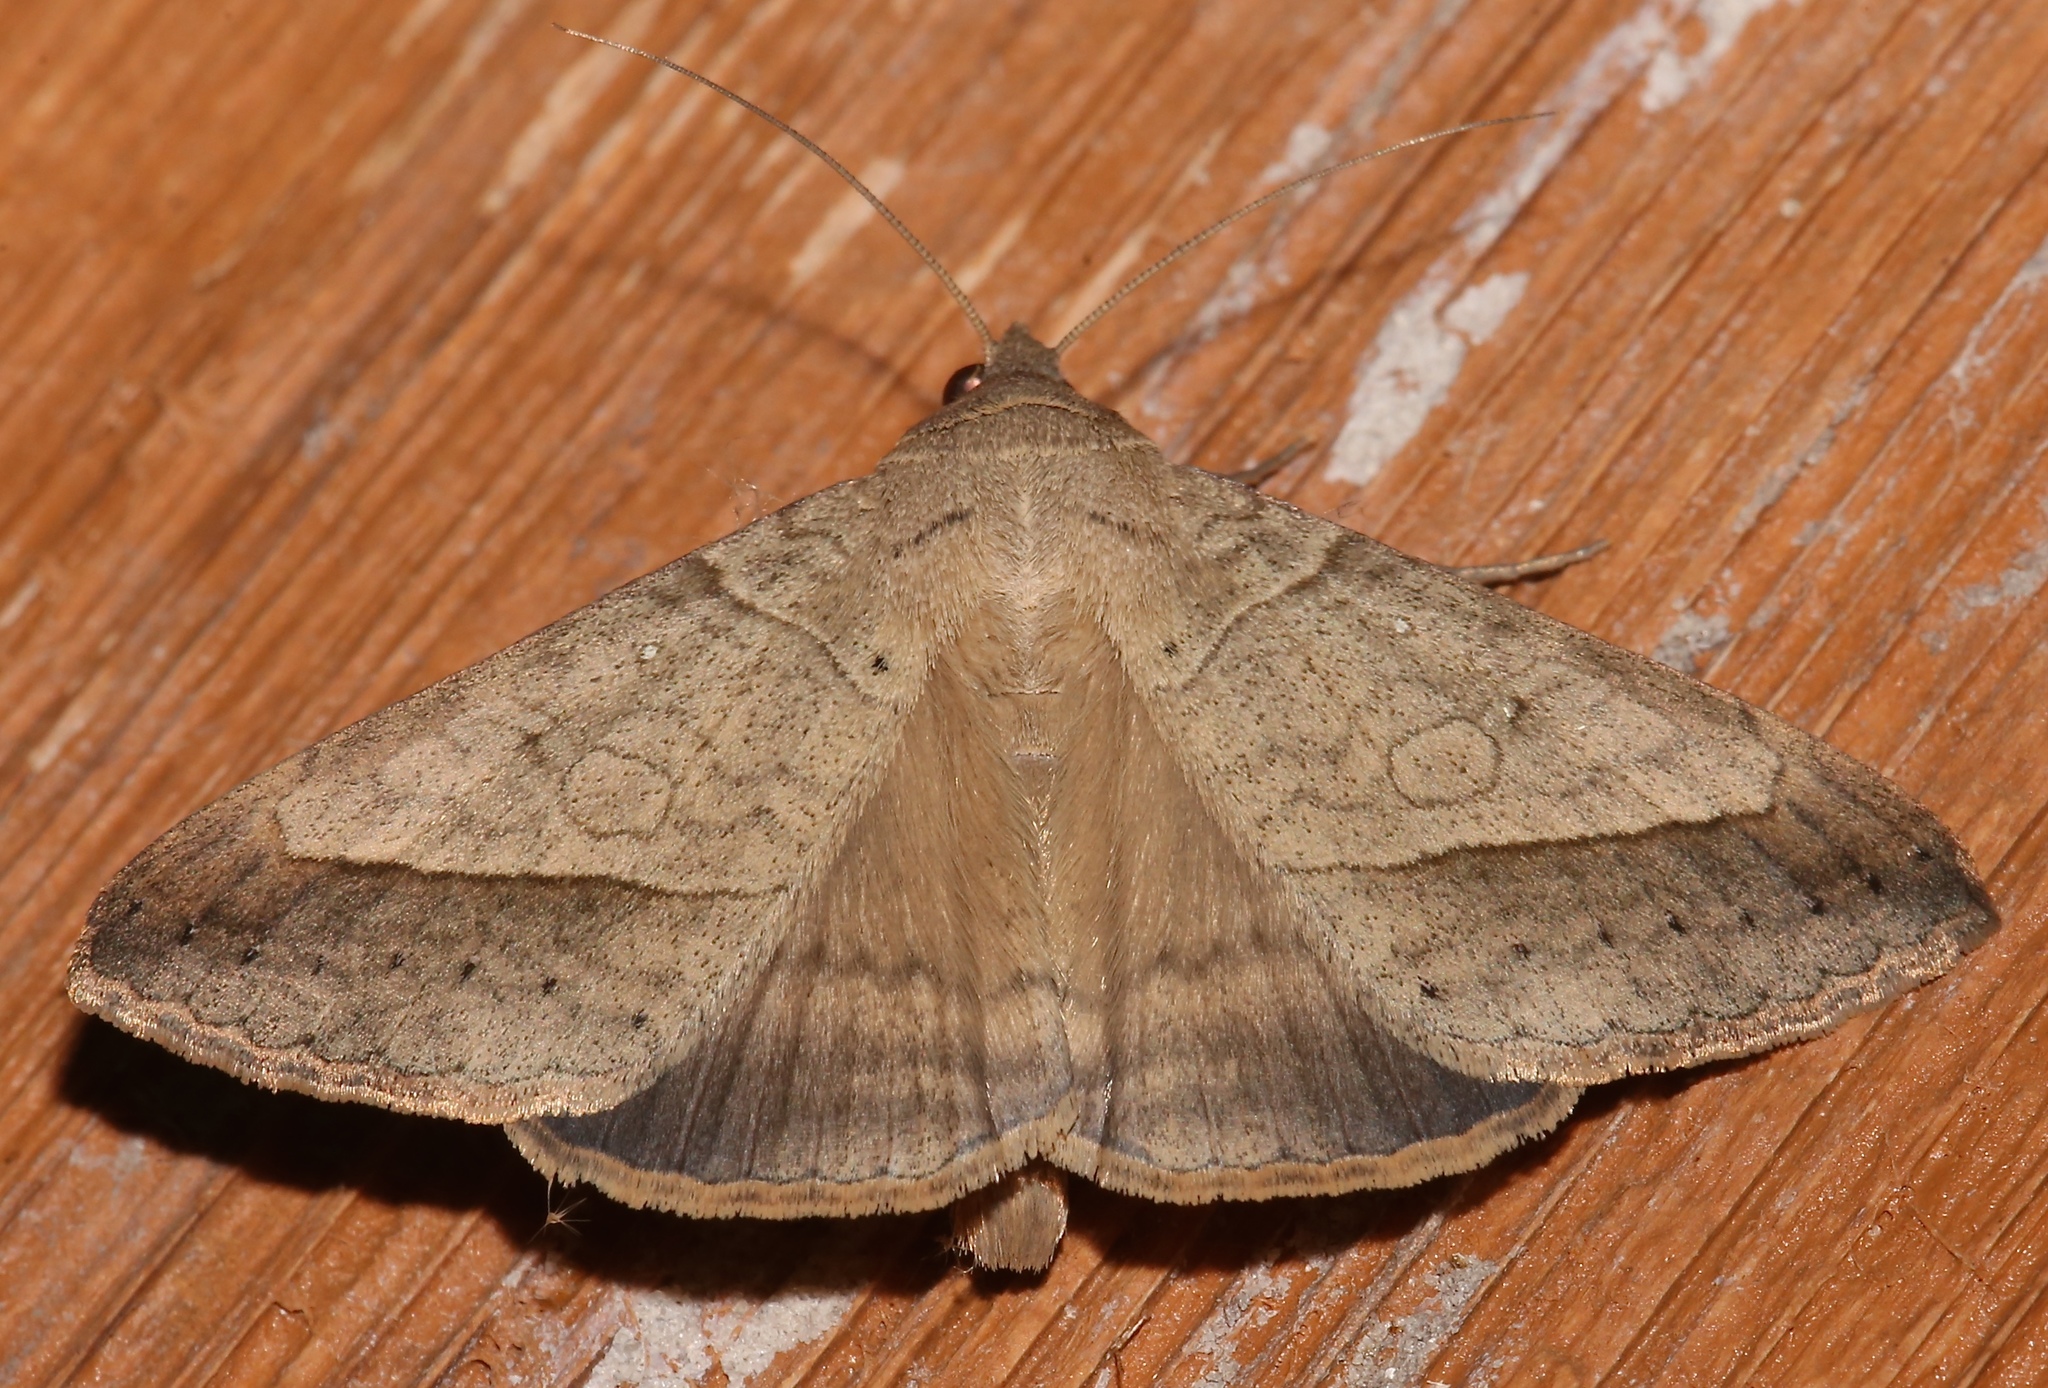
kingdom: Animalia
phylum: Arthropoda
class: Insecta
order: Lepidoptera
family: Erebidae
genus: Mocis
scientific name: Mocis disseverans
